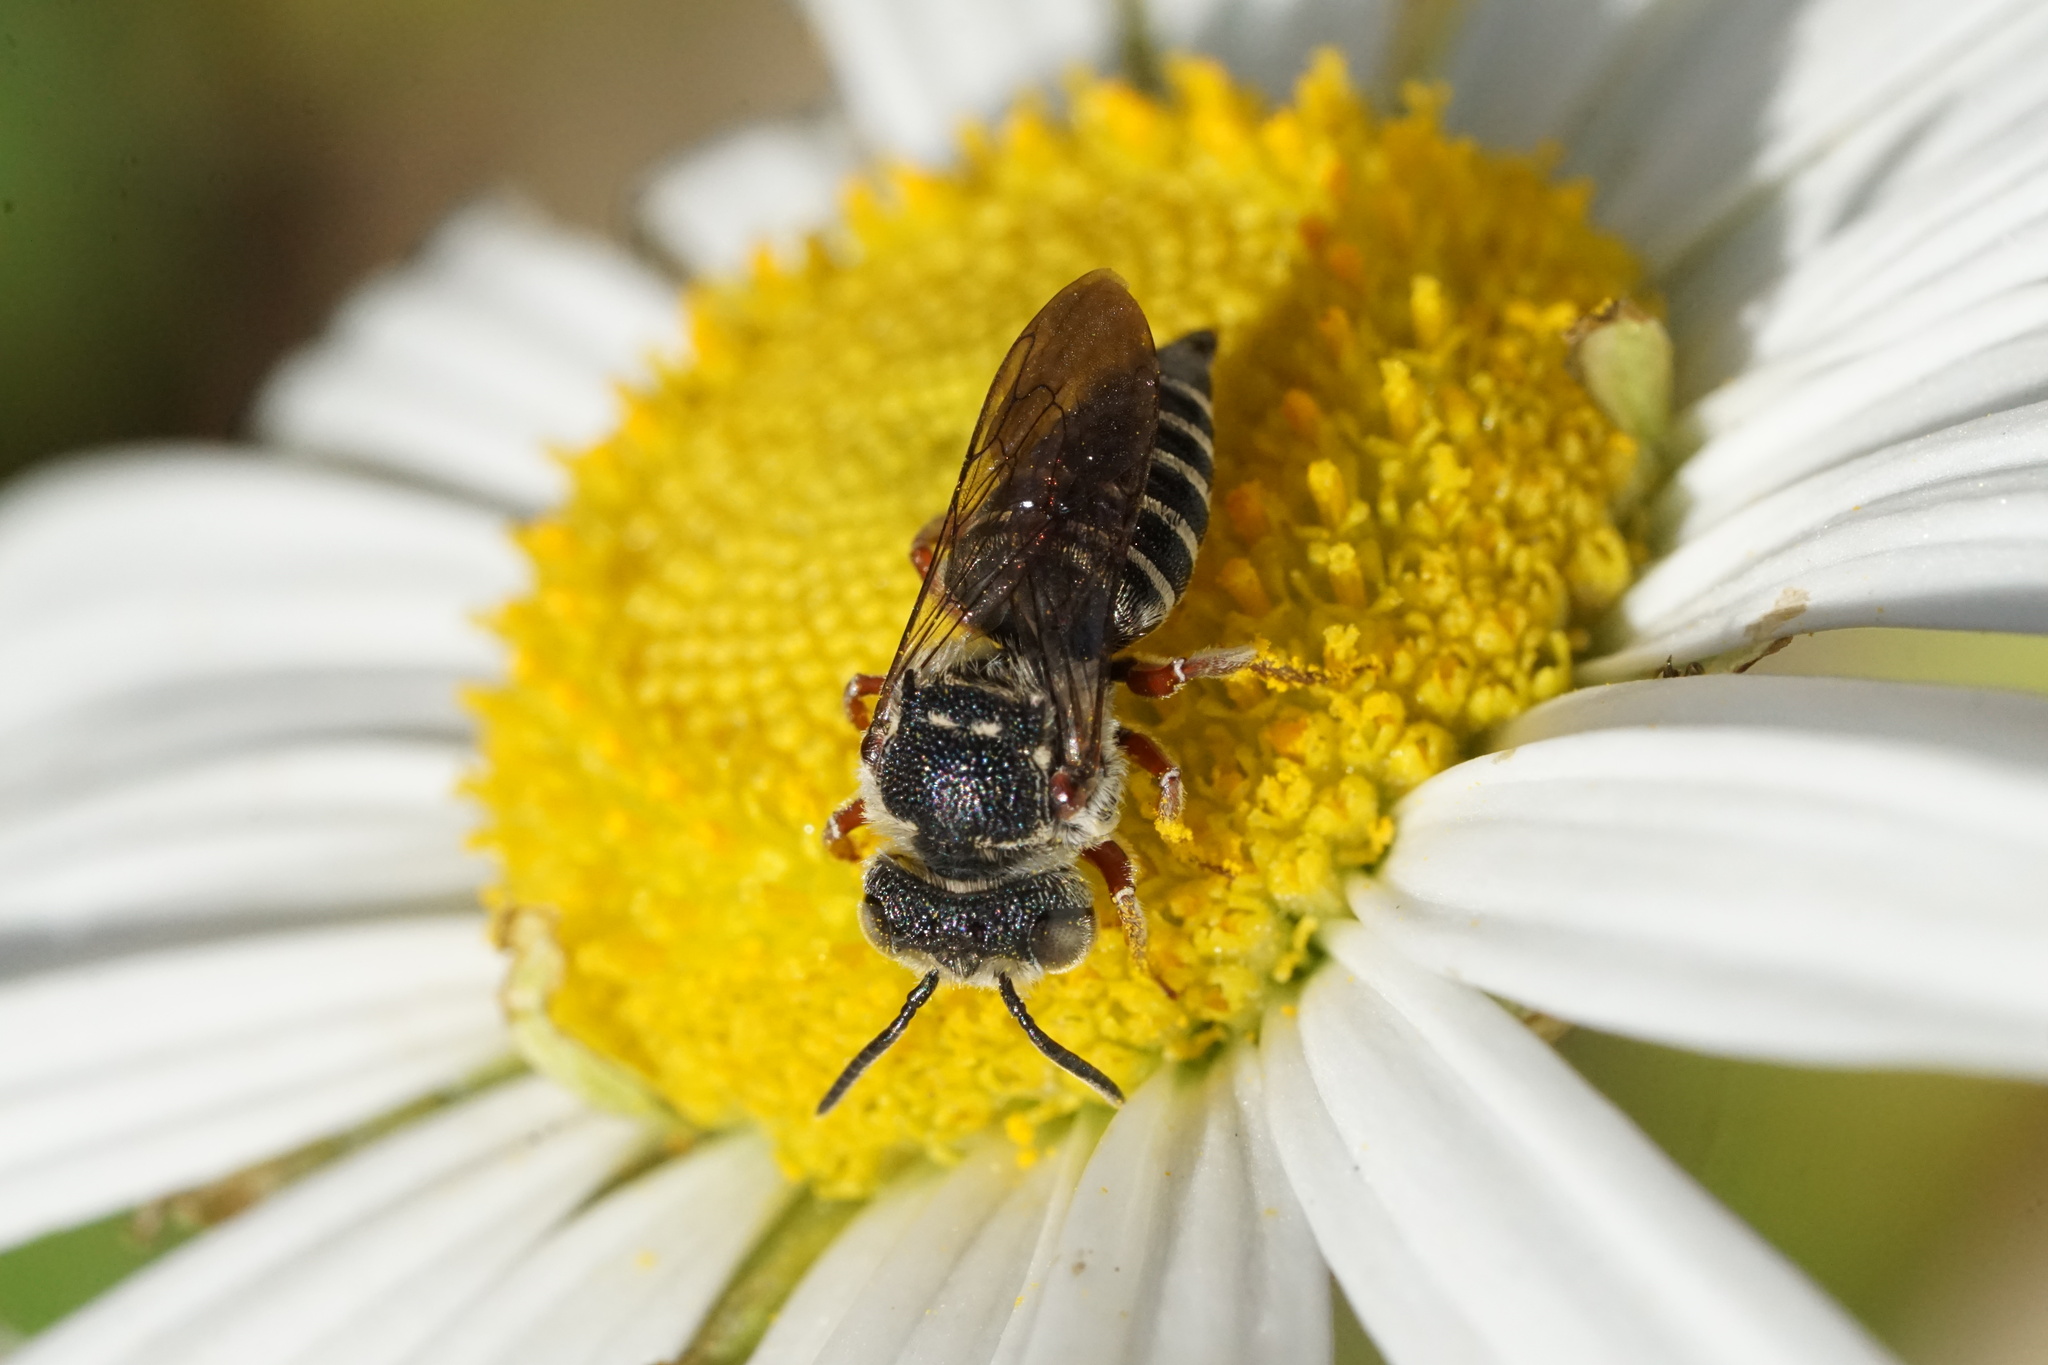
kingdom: Animalia
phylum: Arthropoda
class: Insecta
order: Hymenoptera
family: Megachilidae
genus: Coelioxys
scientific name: Coelioxys octodentatus
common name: Eight-toothed cuckoo leaf-cutter bee
